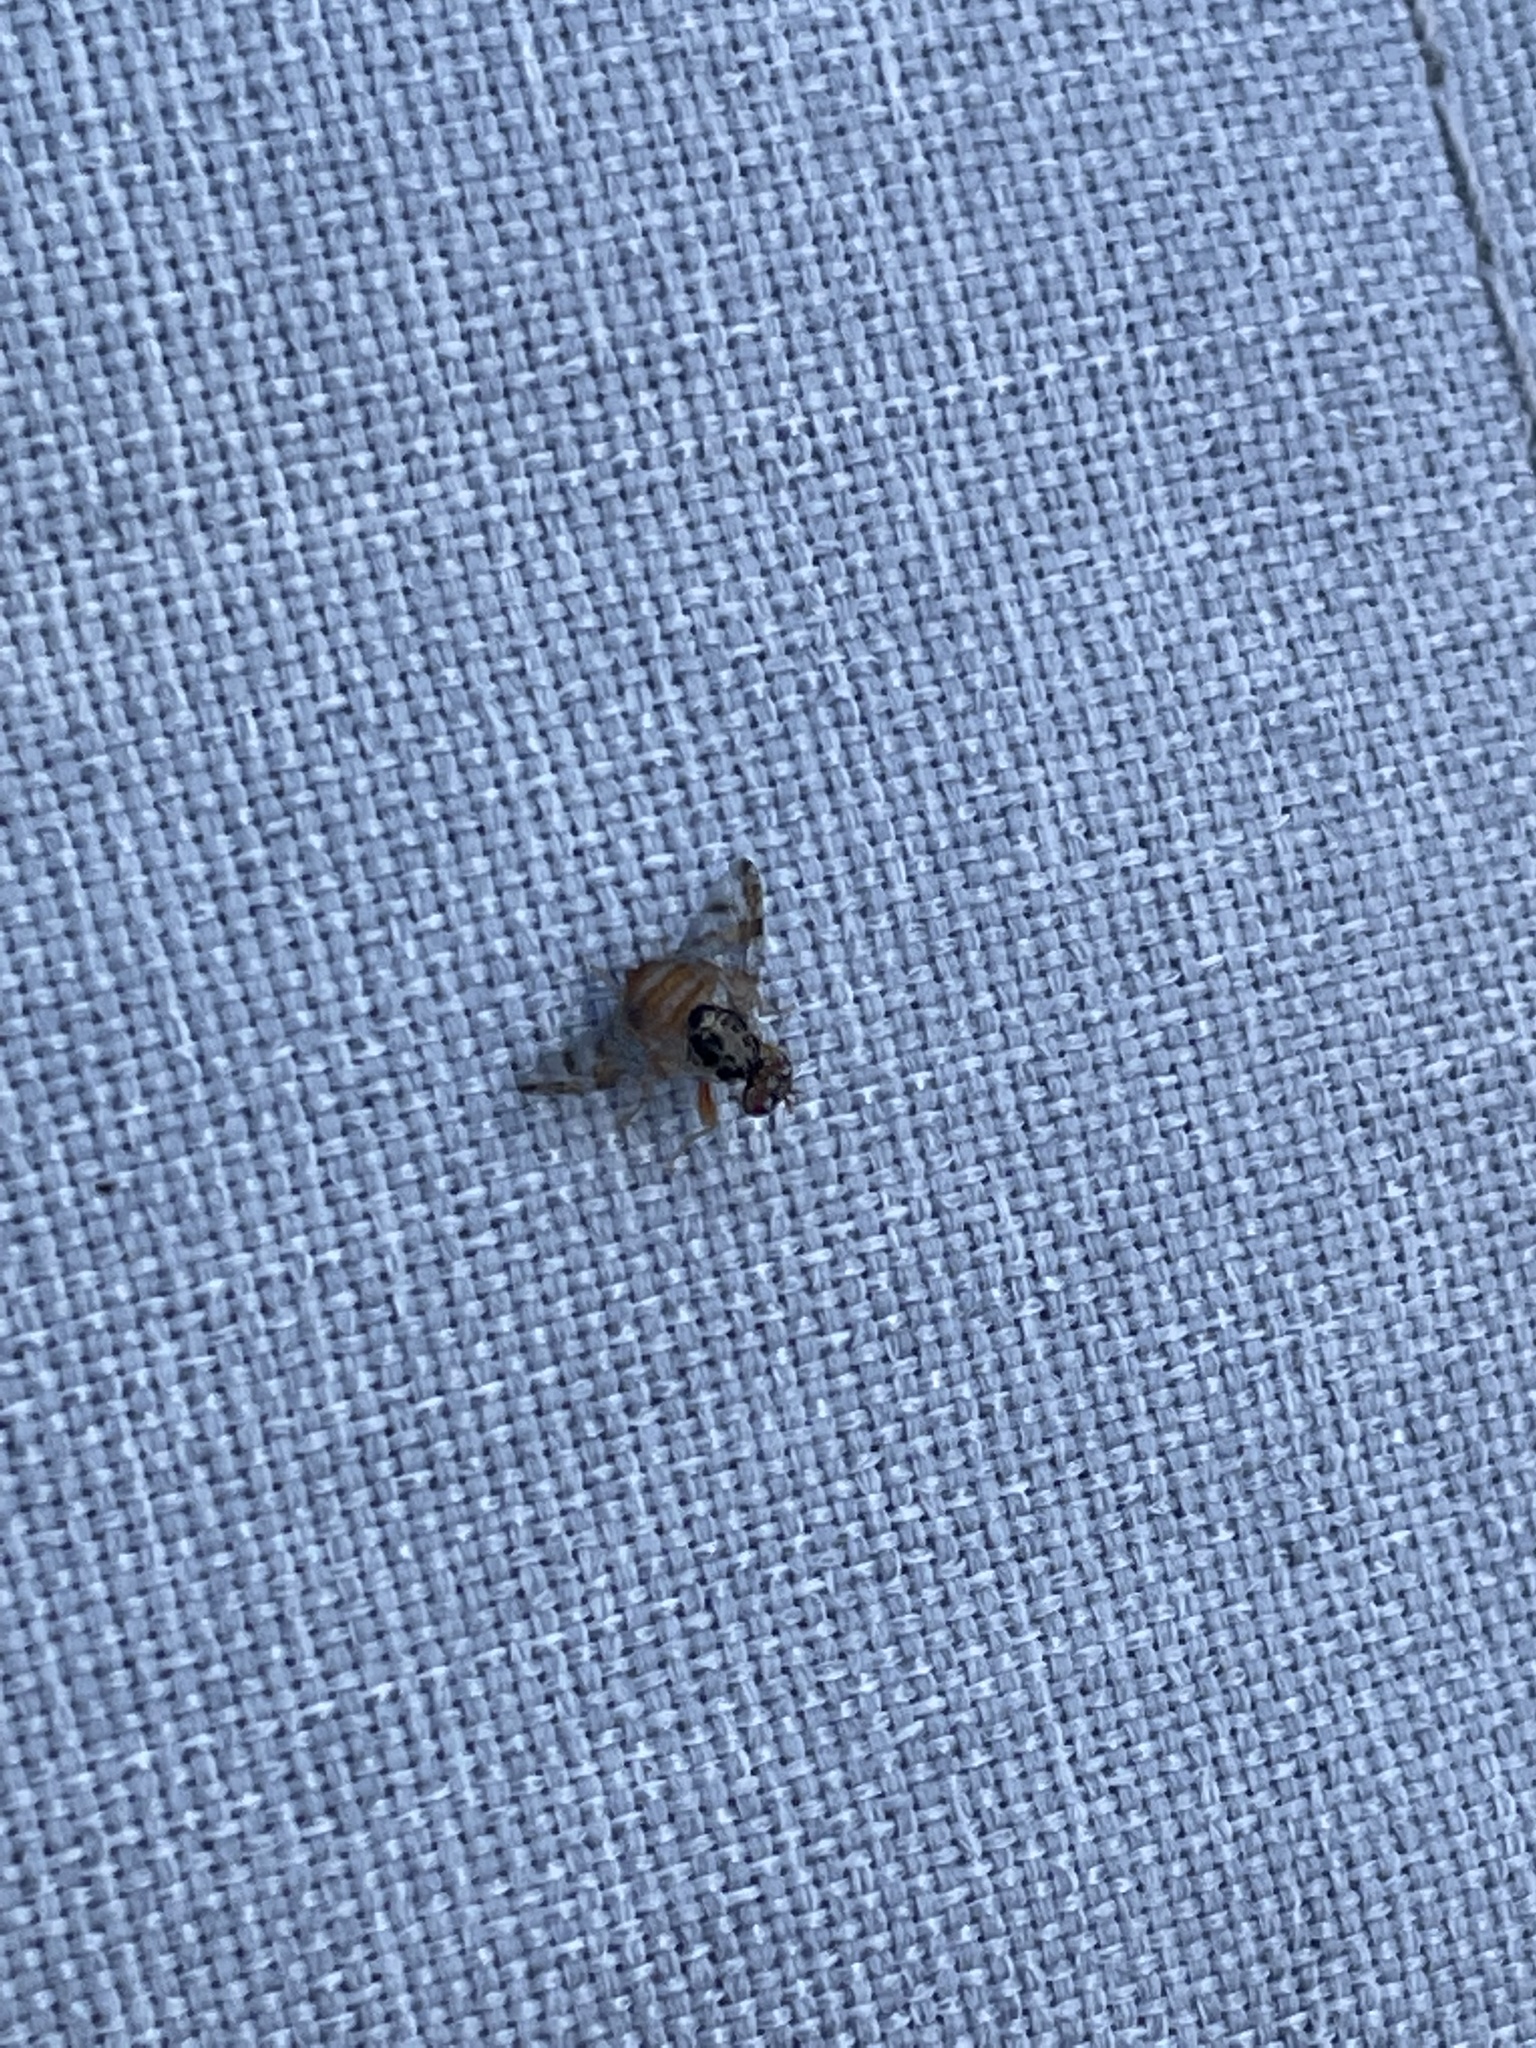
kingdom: Animalia
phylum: Arthropoda
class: Insecta
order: Diptera
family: Tephritidae
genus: Ceratitis
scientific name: Ceratitis capitata
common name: Mediterranean fruit fly
